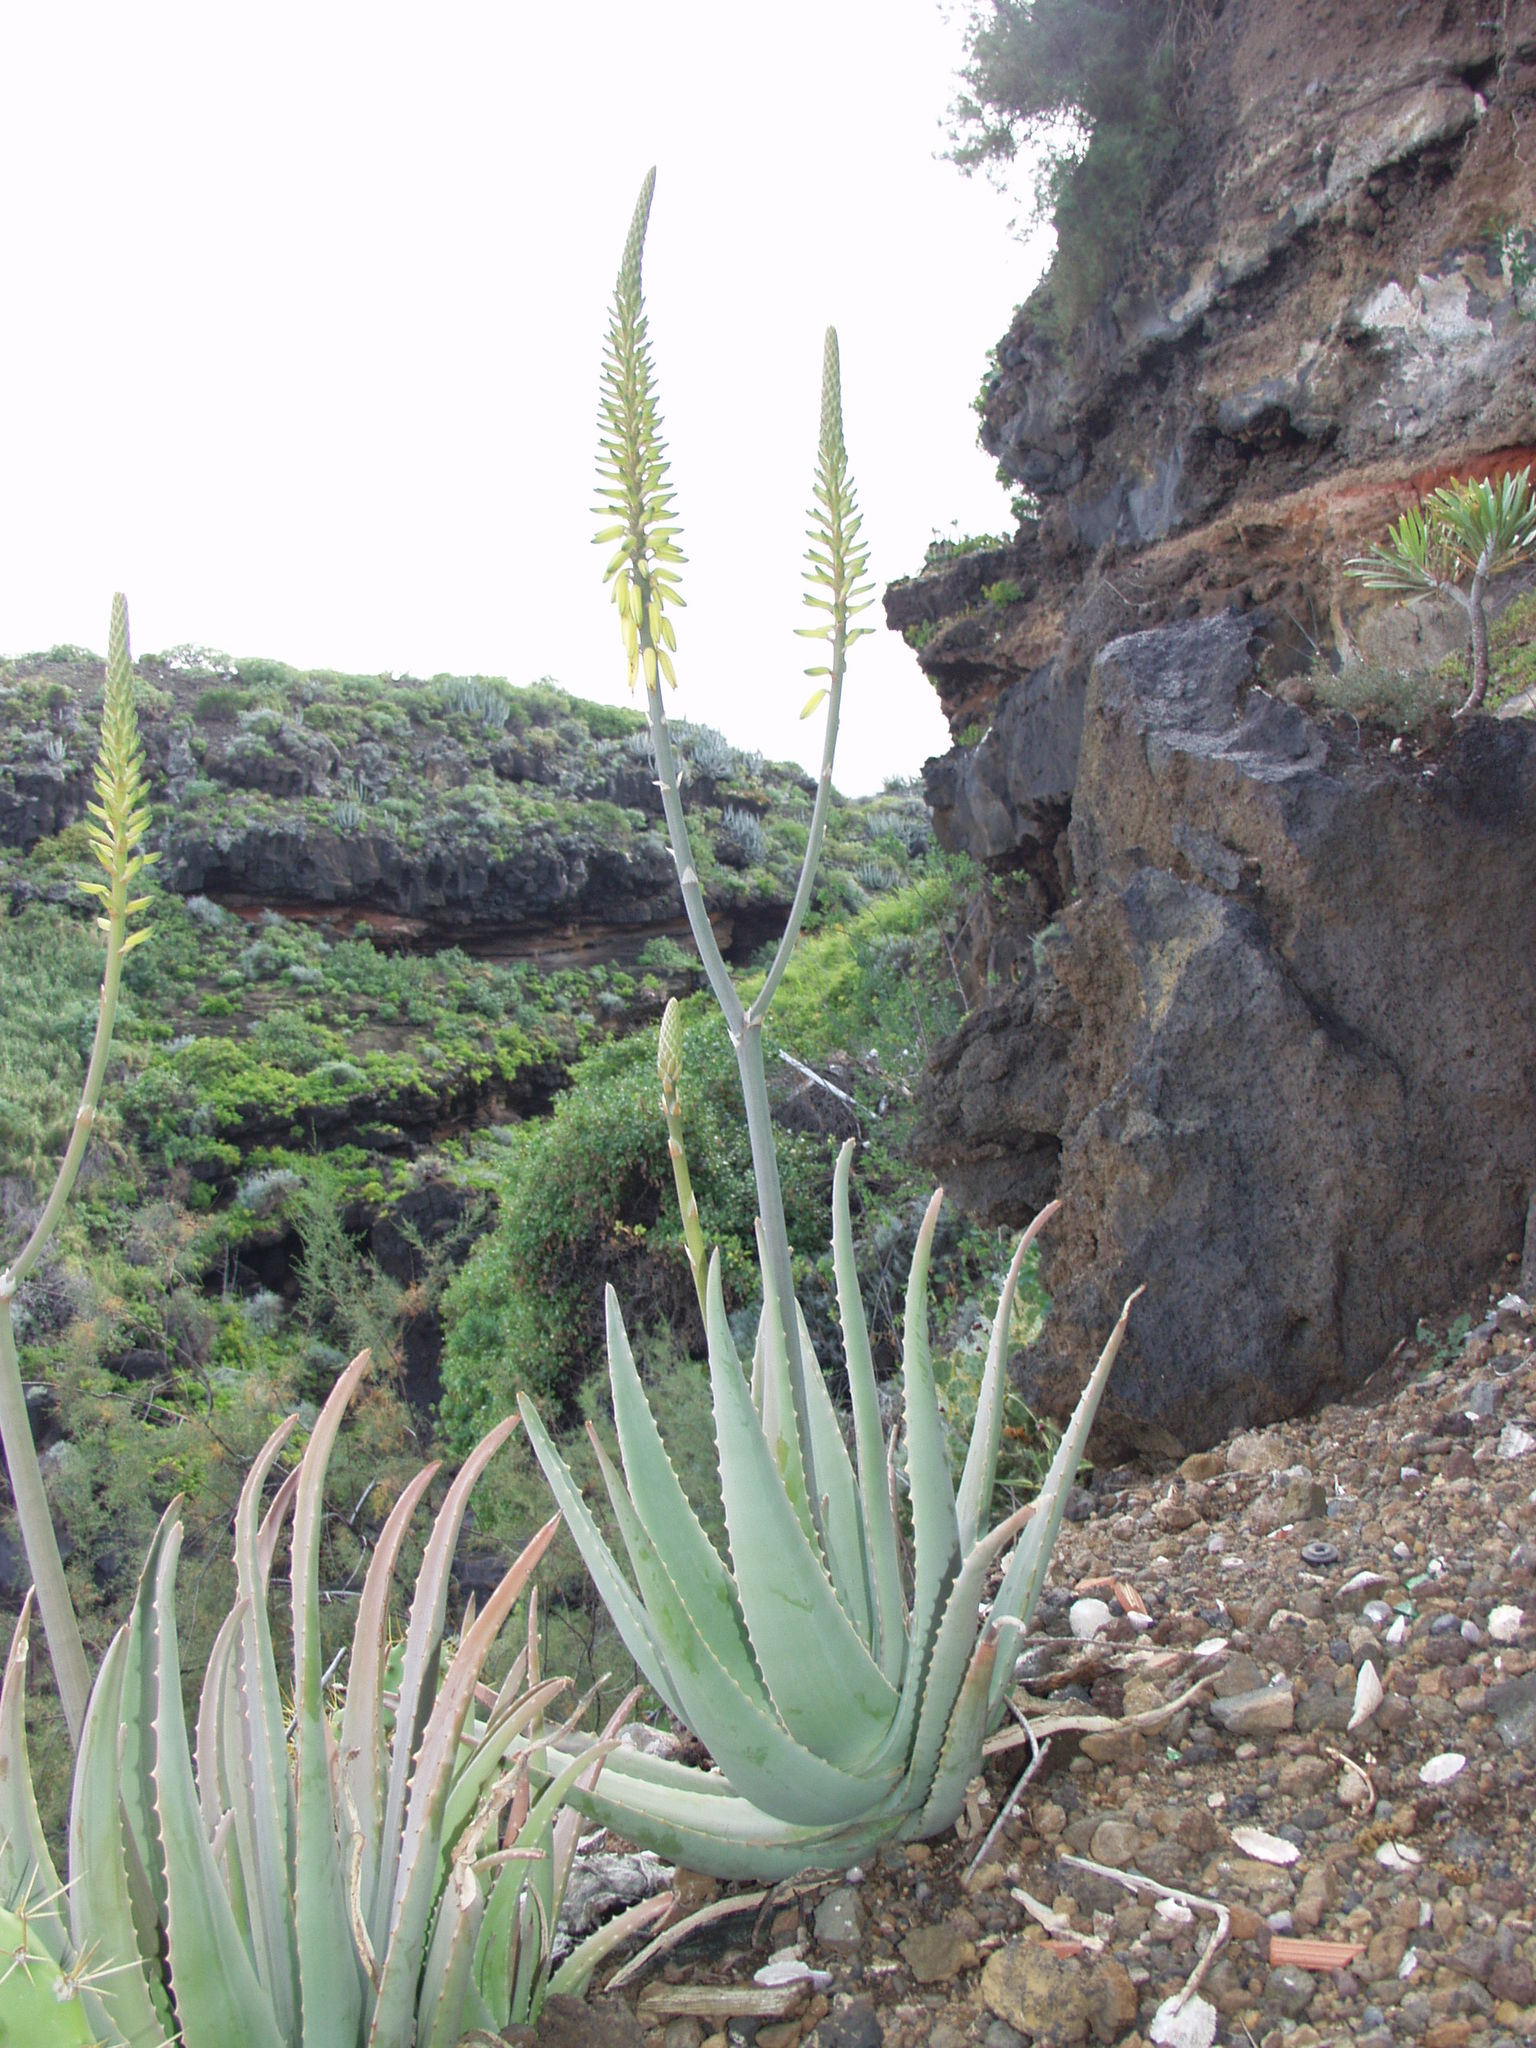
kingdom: Plantae
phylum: Tracheophyta
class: Liliopsida
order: Asparagales
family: Asphodelaceae
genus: Aloe
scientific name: Aloe vera
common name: Barbados aloe
